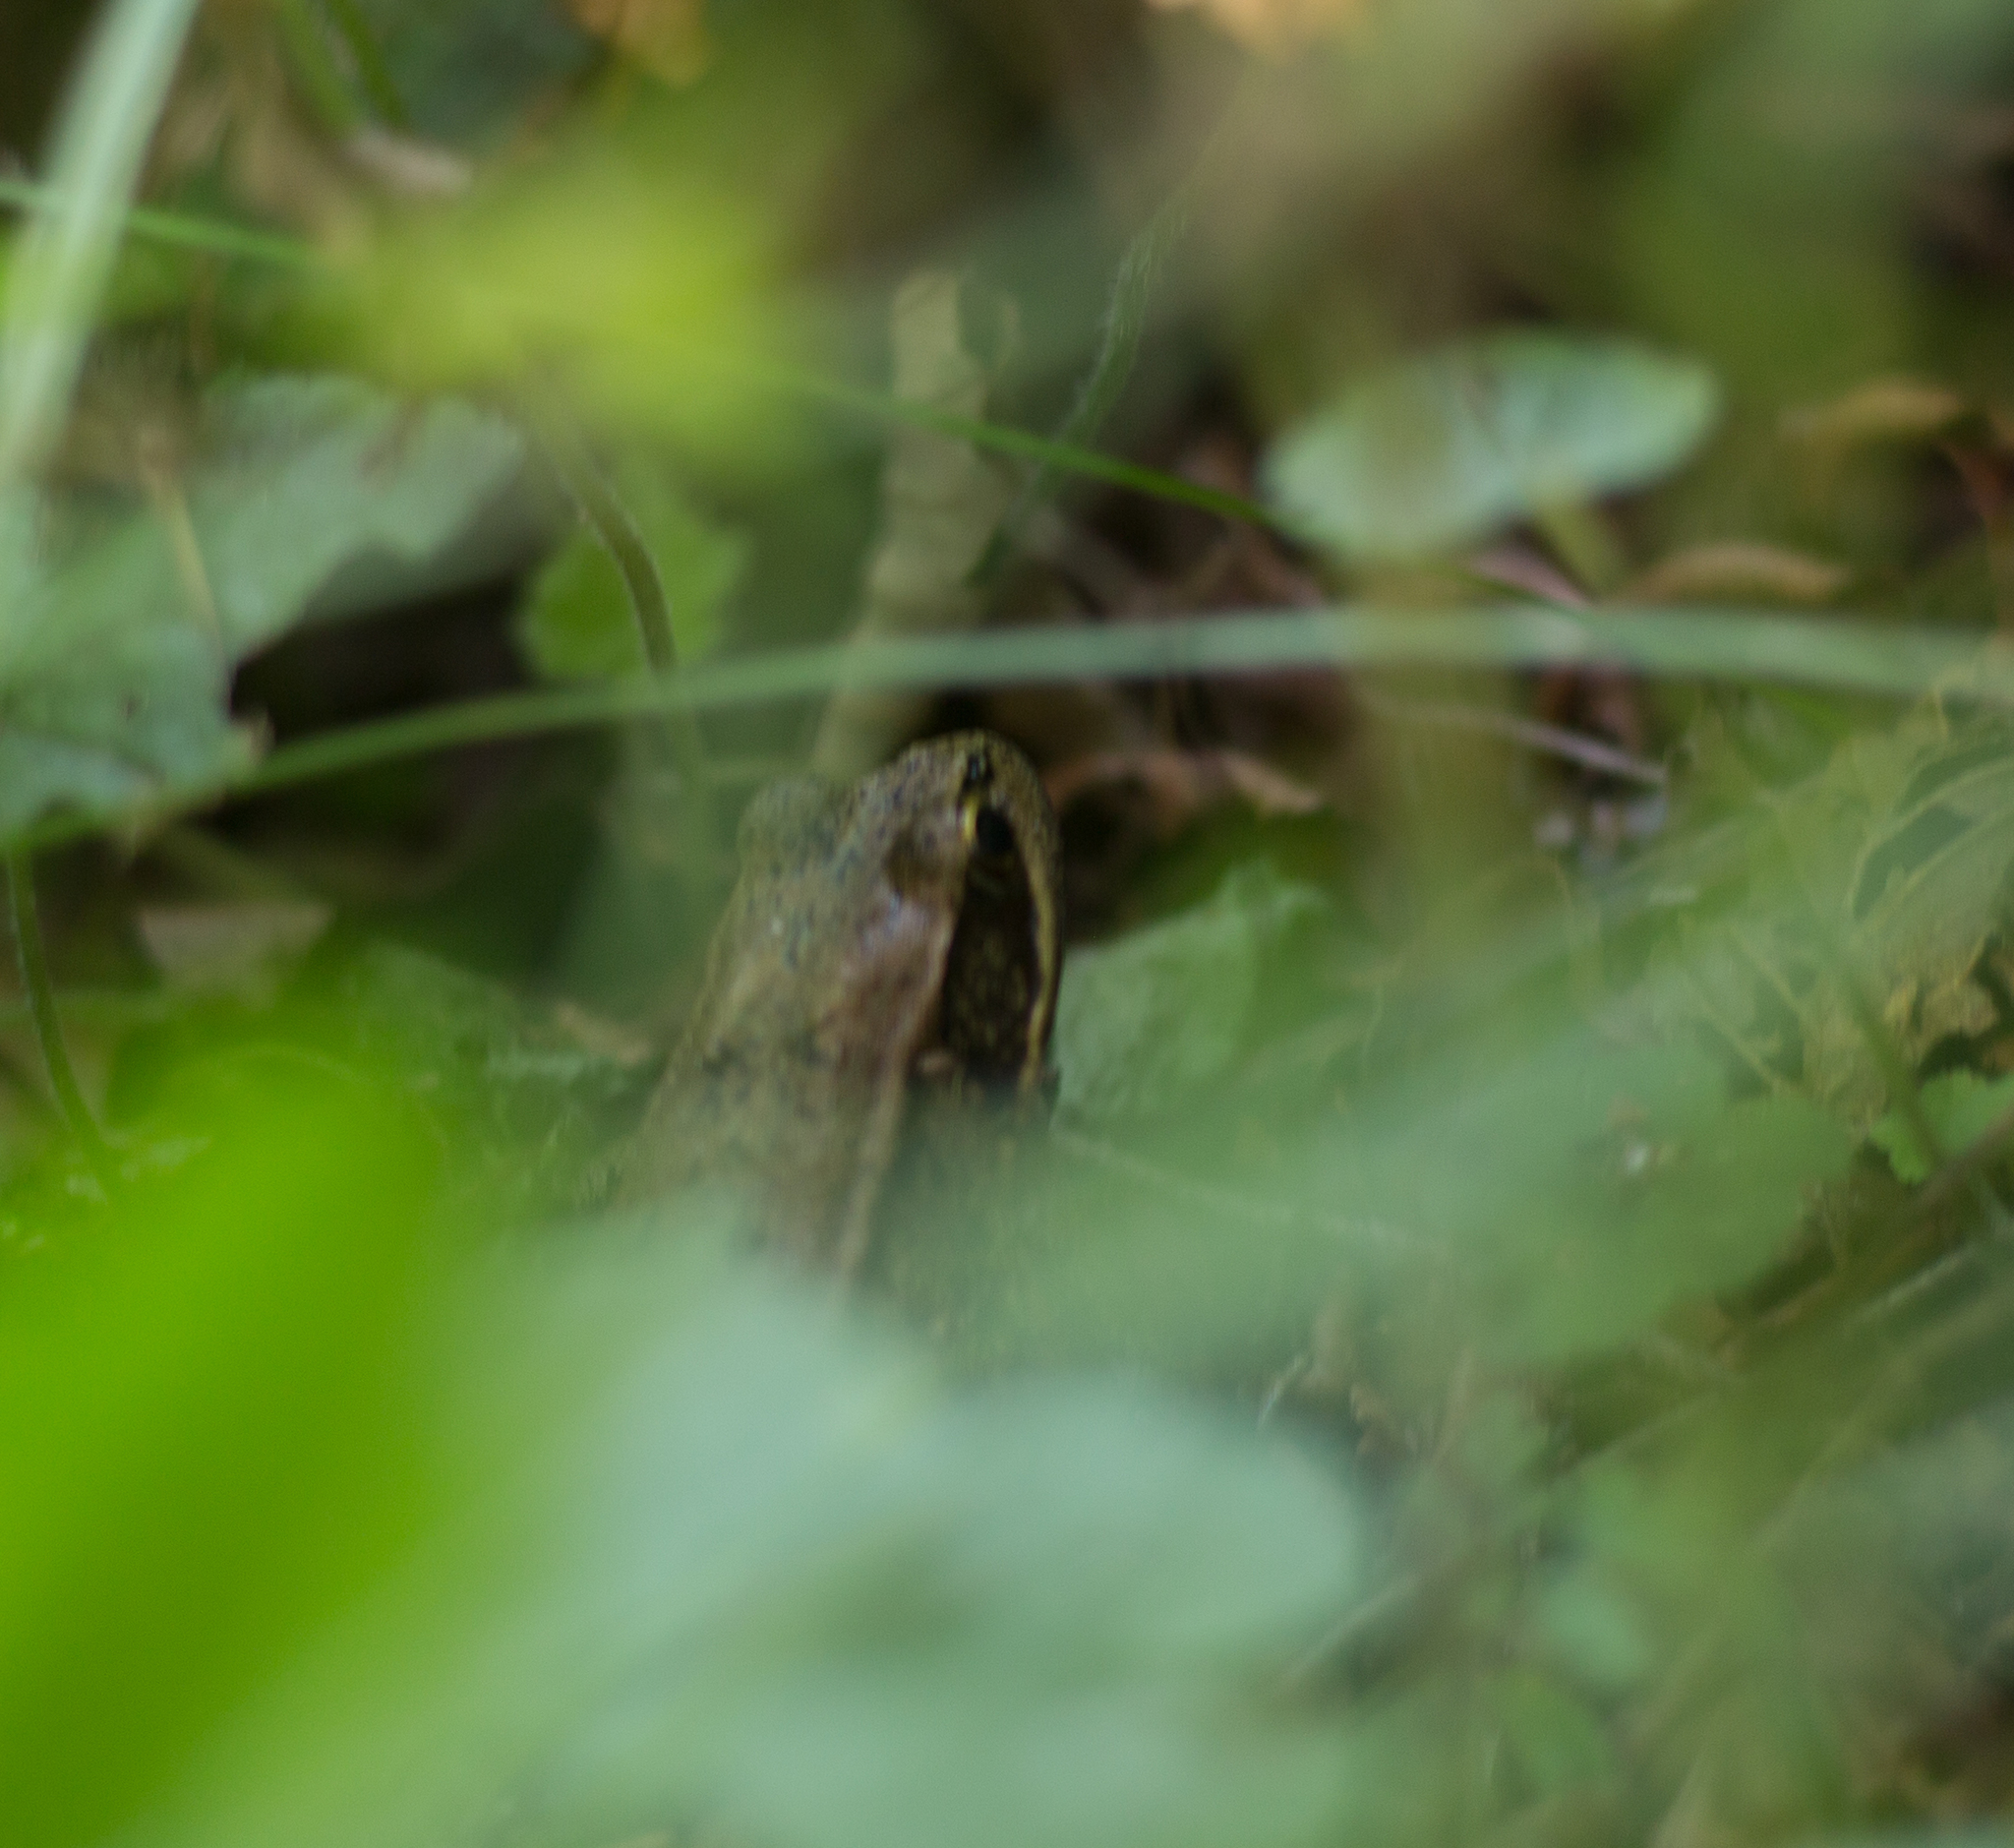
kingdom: Animalia
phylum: Chordata
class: Amphibia
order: Anura
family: Ranidae
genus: Rana
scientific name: Rana aurora
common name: Red-legged frog
